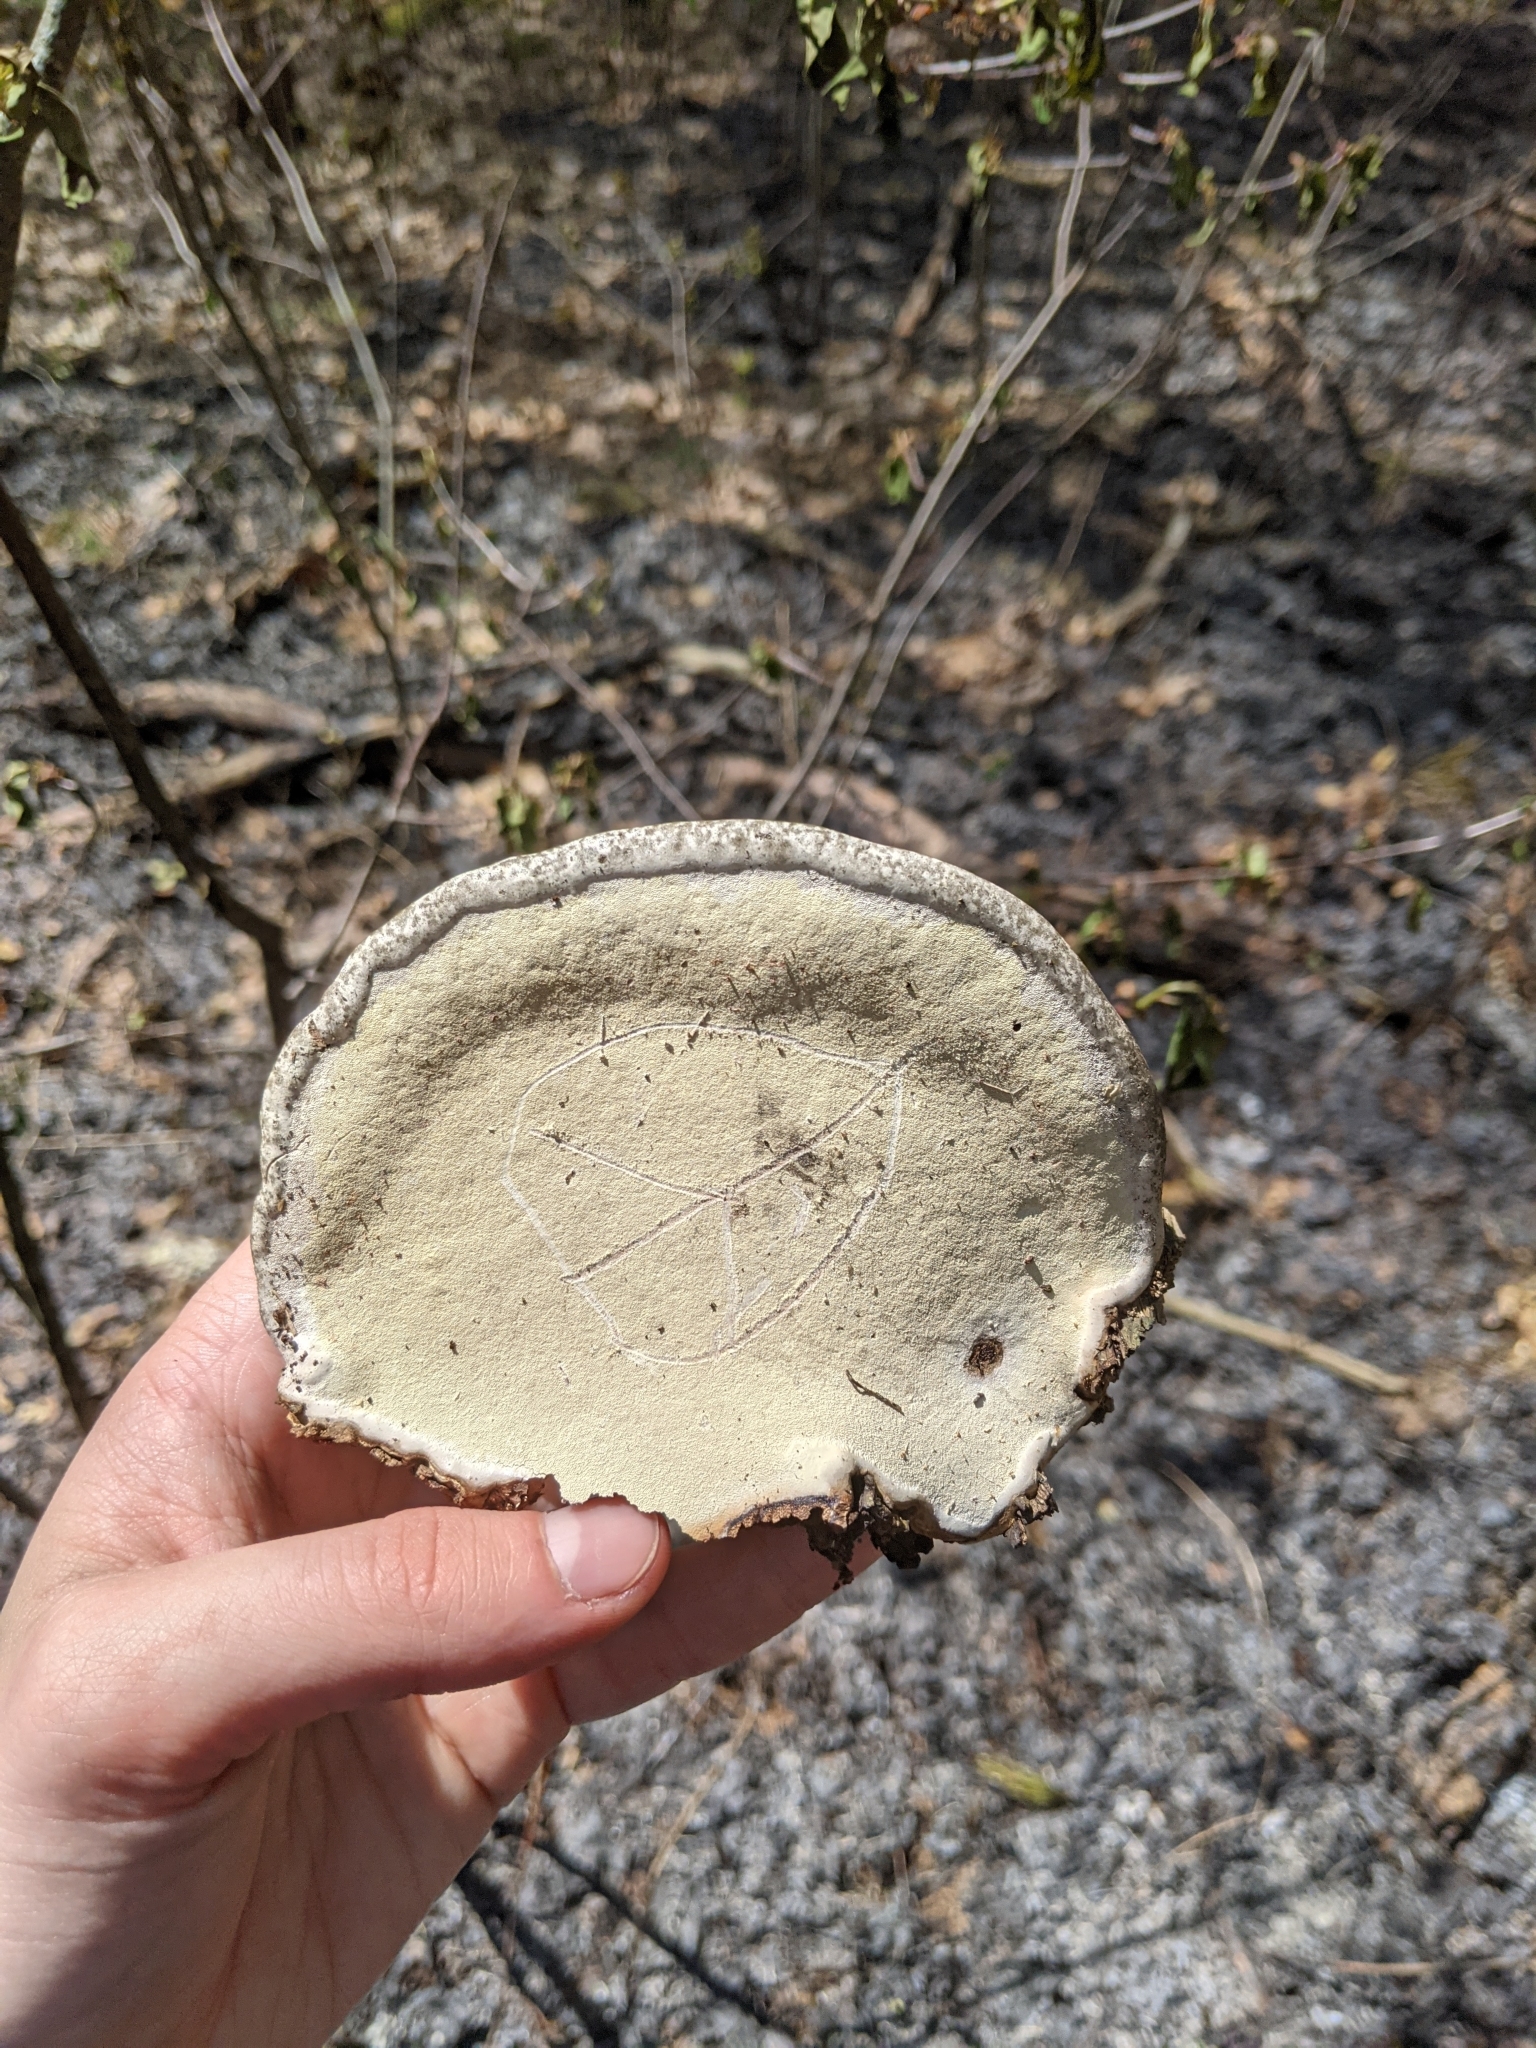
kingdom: Fungi
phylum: Basidiomycota
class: Agaricomycetes
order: Polyporales
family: Polyporaceae
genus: Ganoderma
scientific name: Ganoderma applanatum
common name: Artist's bracket
